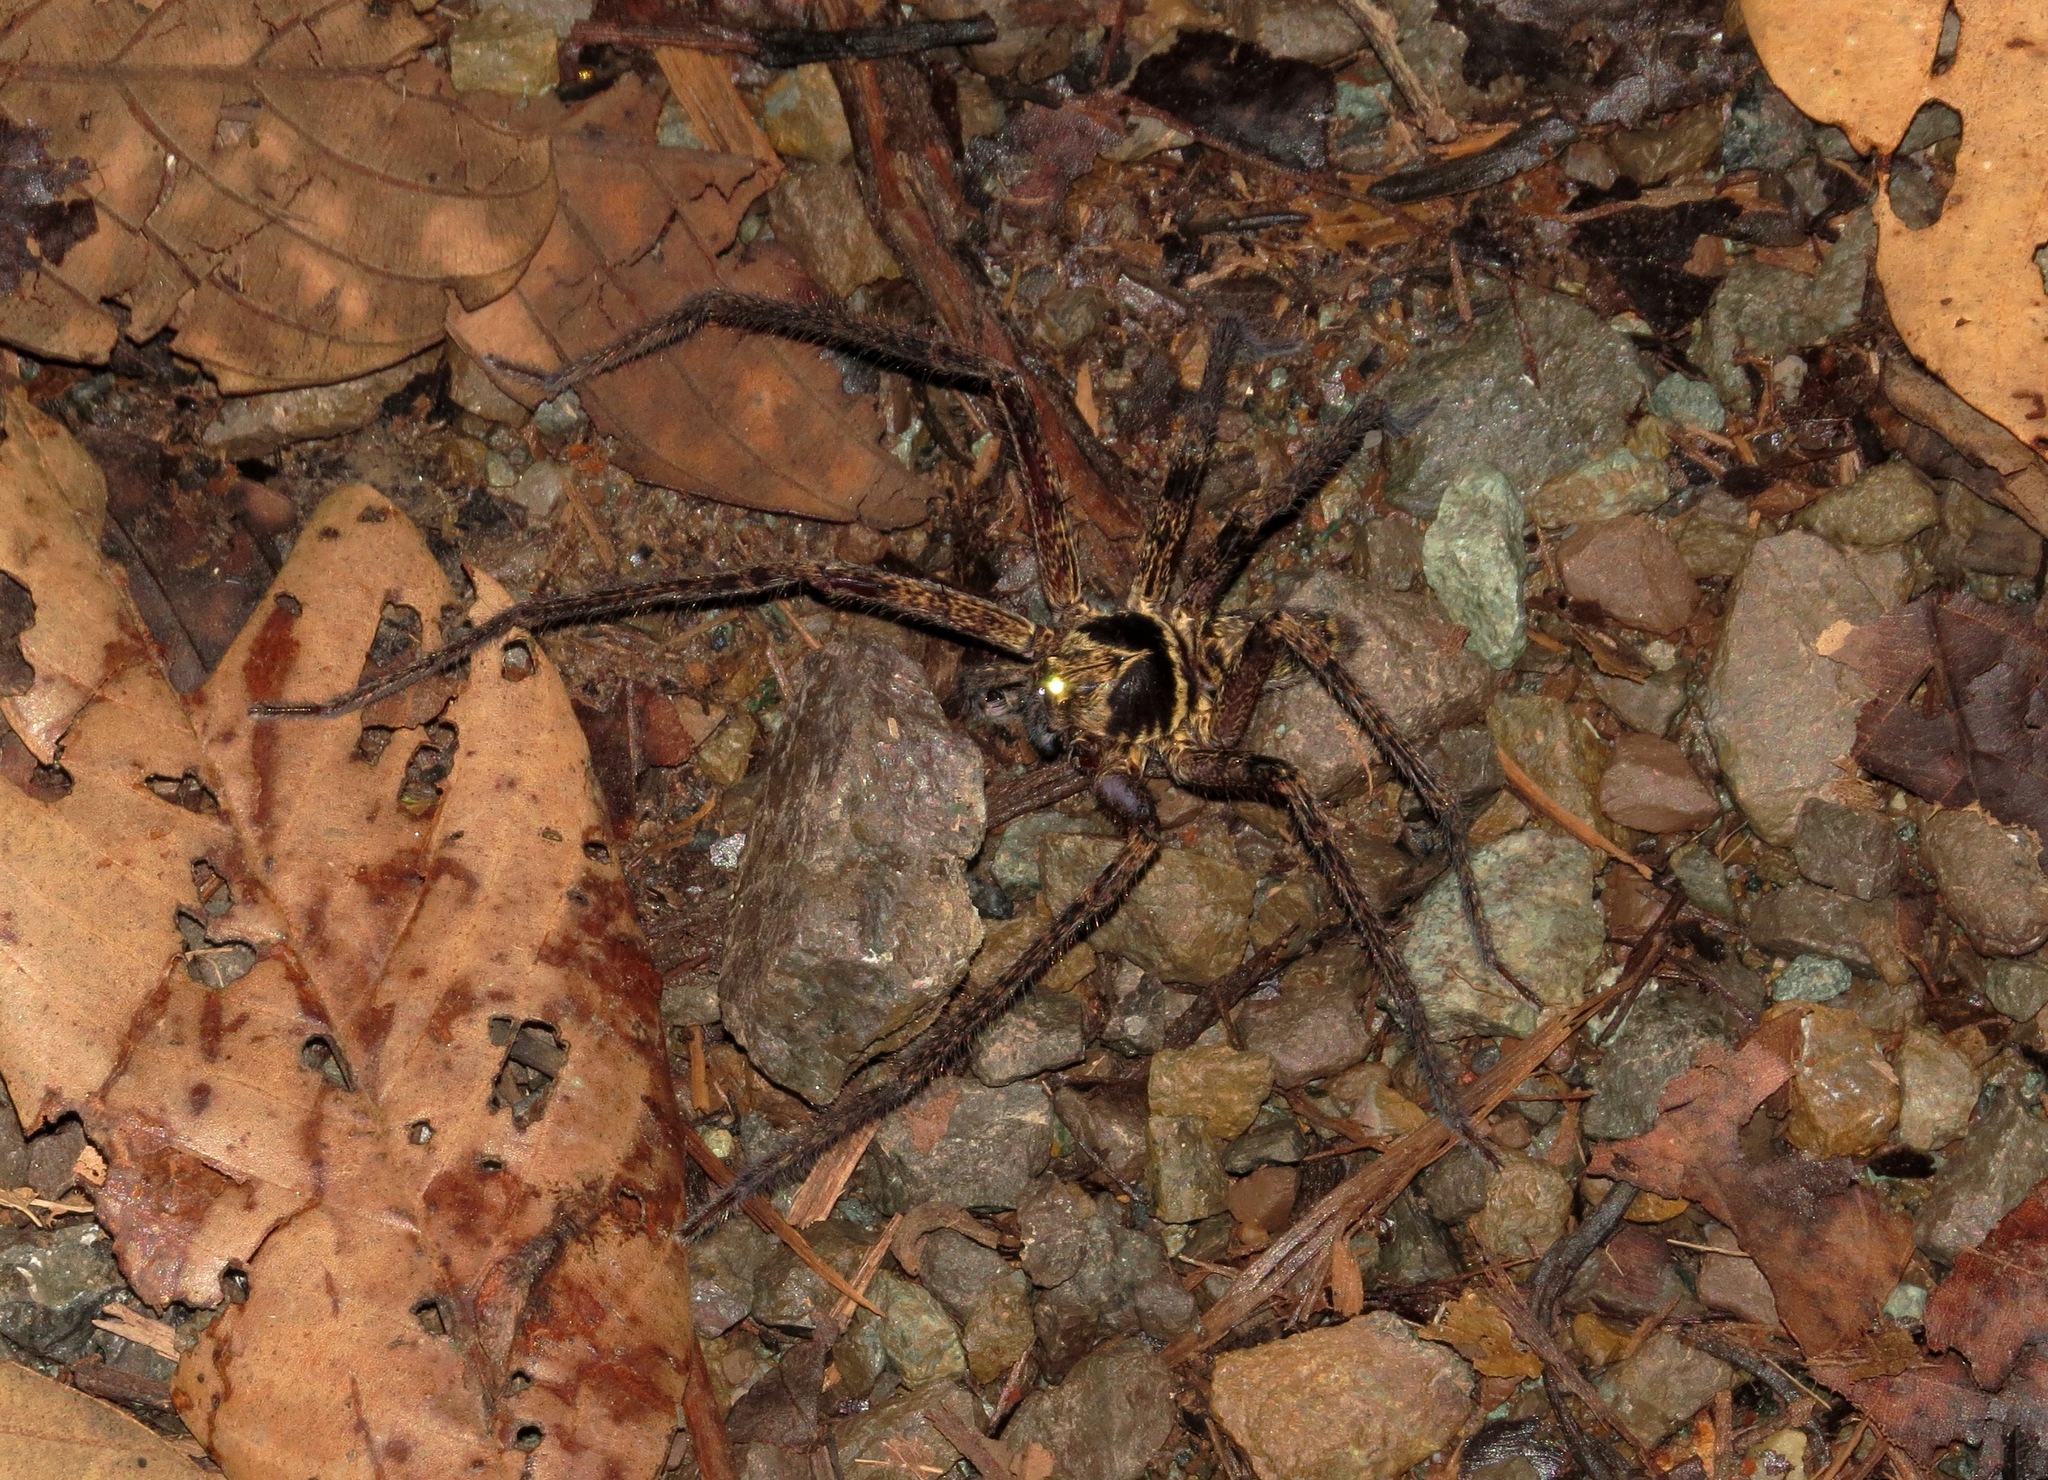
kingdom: Animalia
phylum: Arthropoda
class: Arachnida
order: Araneae
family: Sparassidae
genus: Heteropoda
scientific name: Heteropoda venatoria
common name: Huntsman spider
